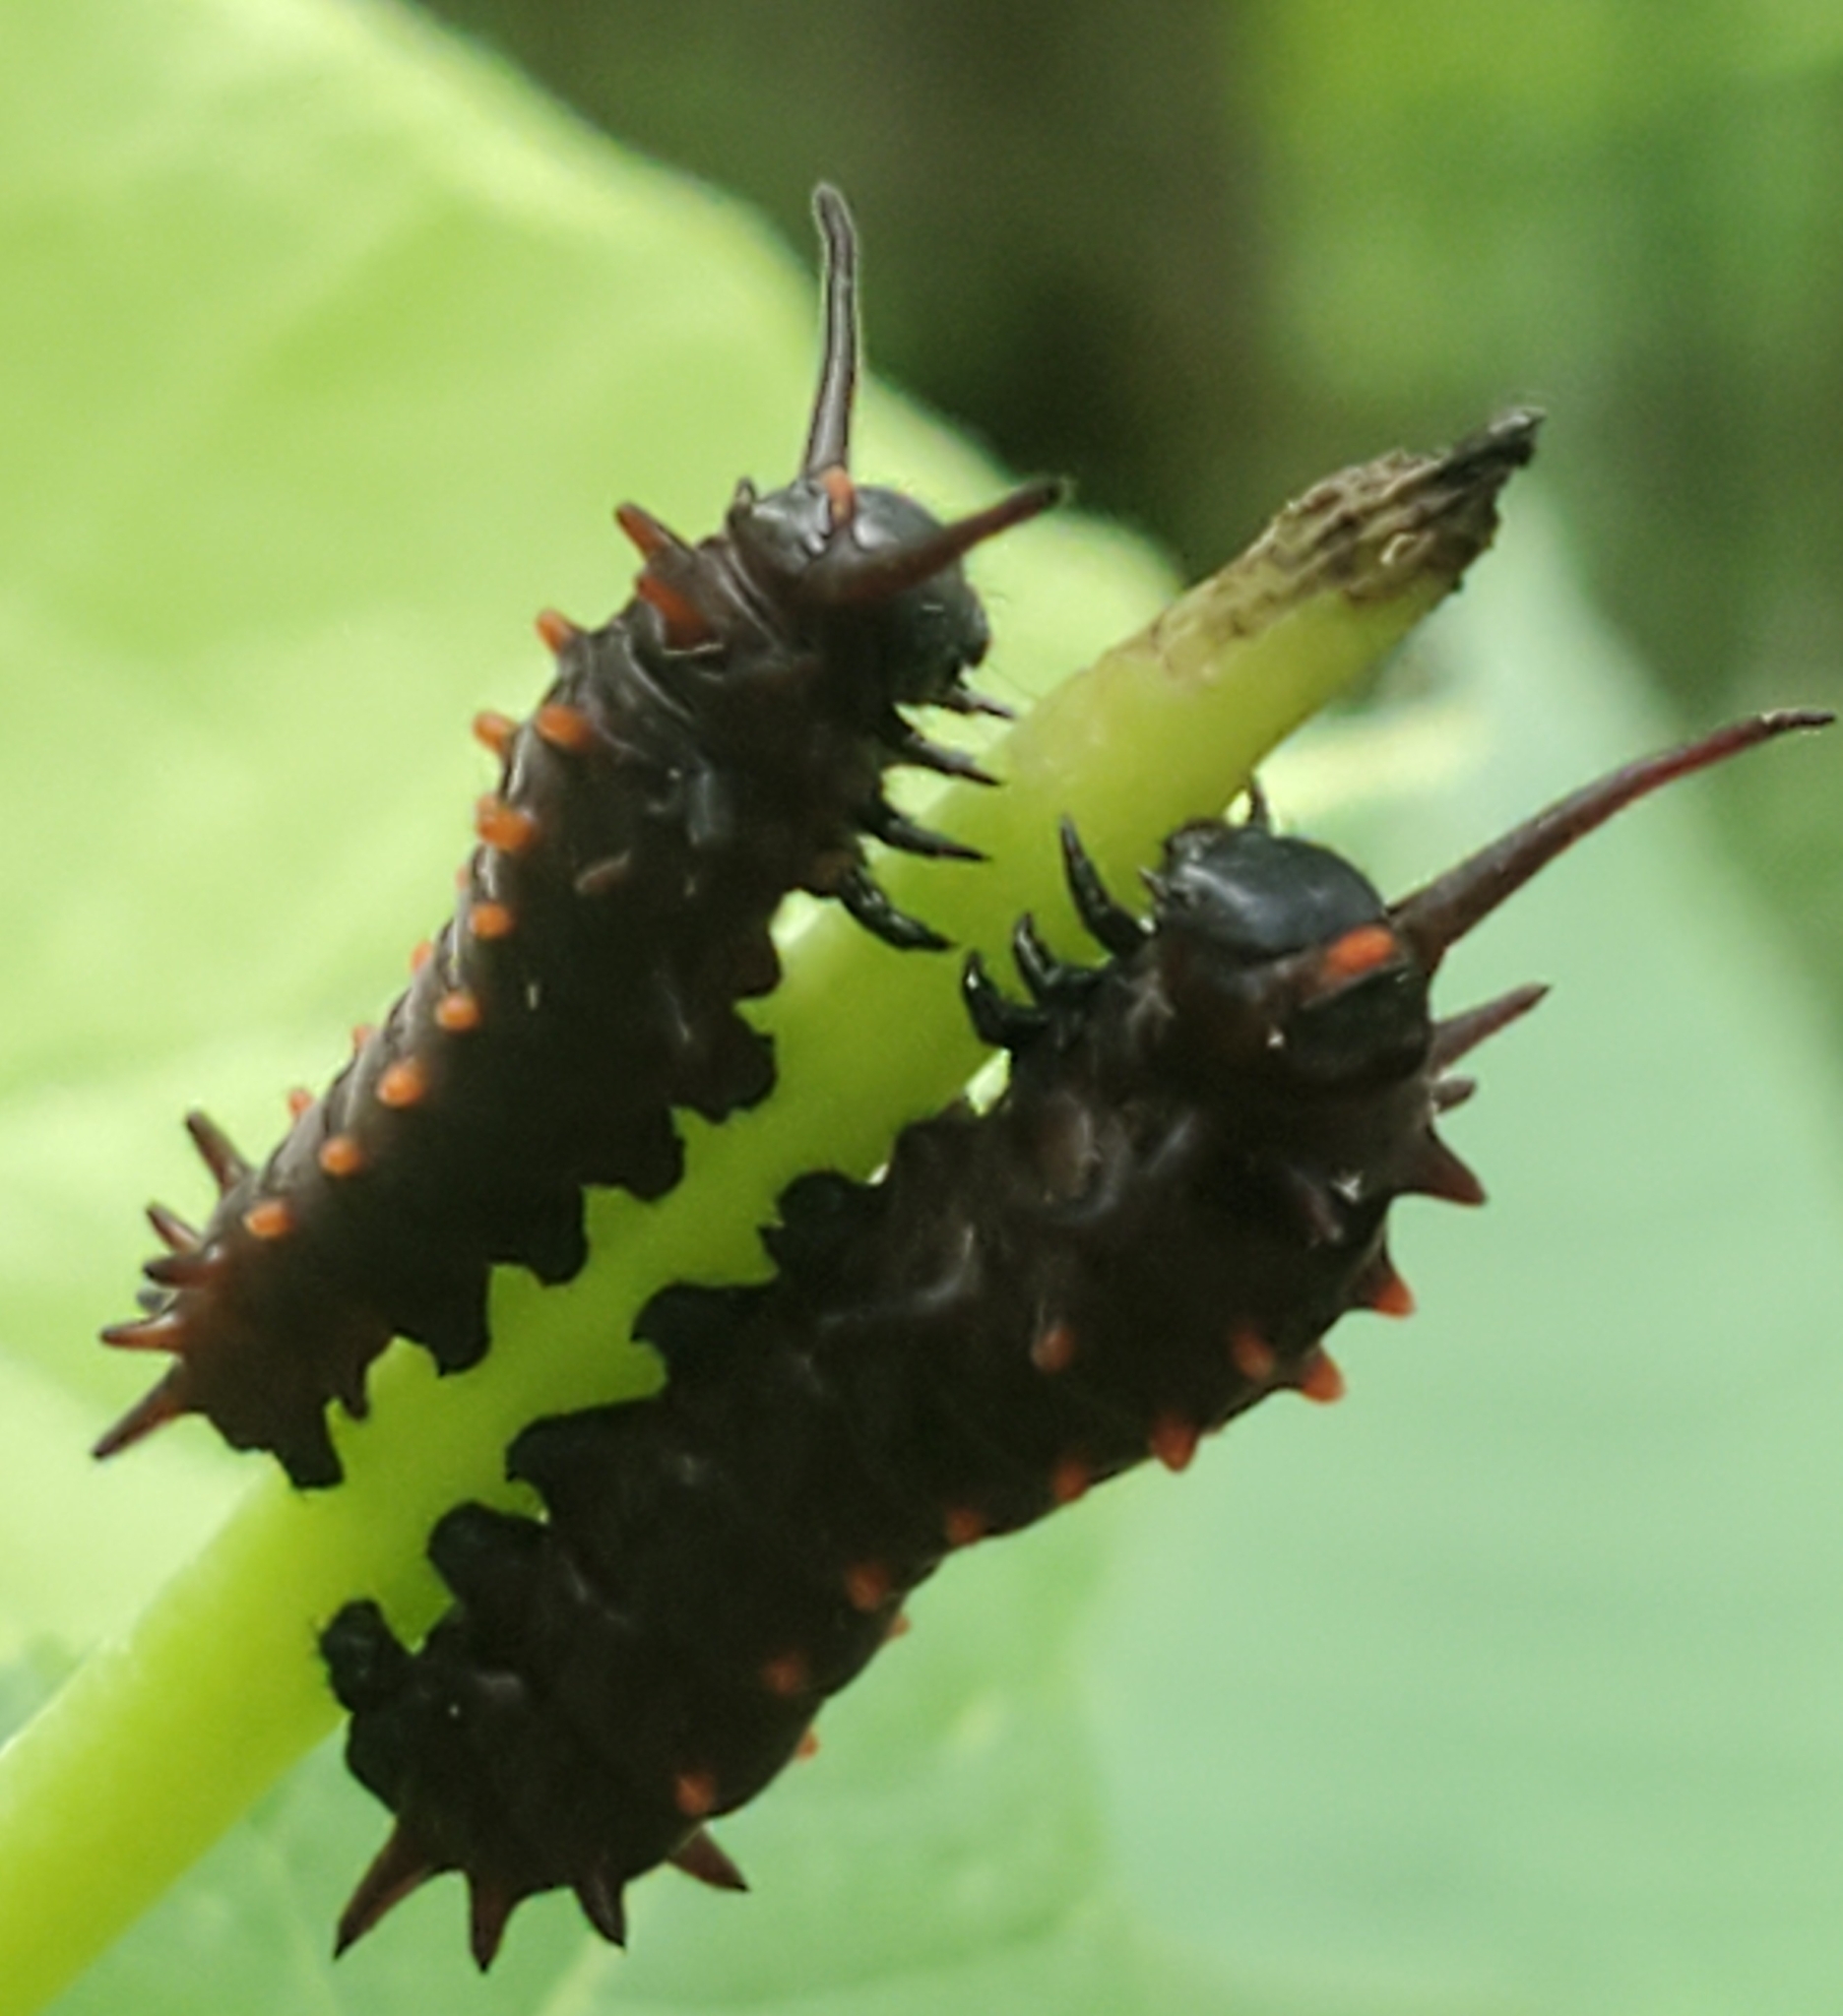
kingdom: Animalia
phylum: Arthropoda
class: Insecta
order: Lepidoptera
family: Papilionidae
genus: Battus
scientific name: Battus philenor
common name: Pipevine swallowtail
